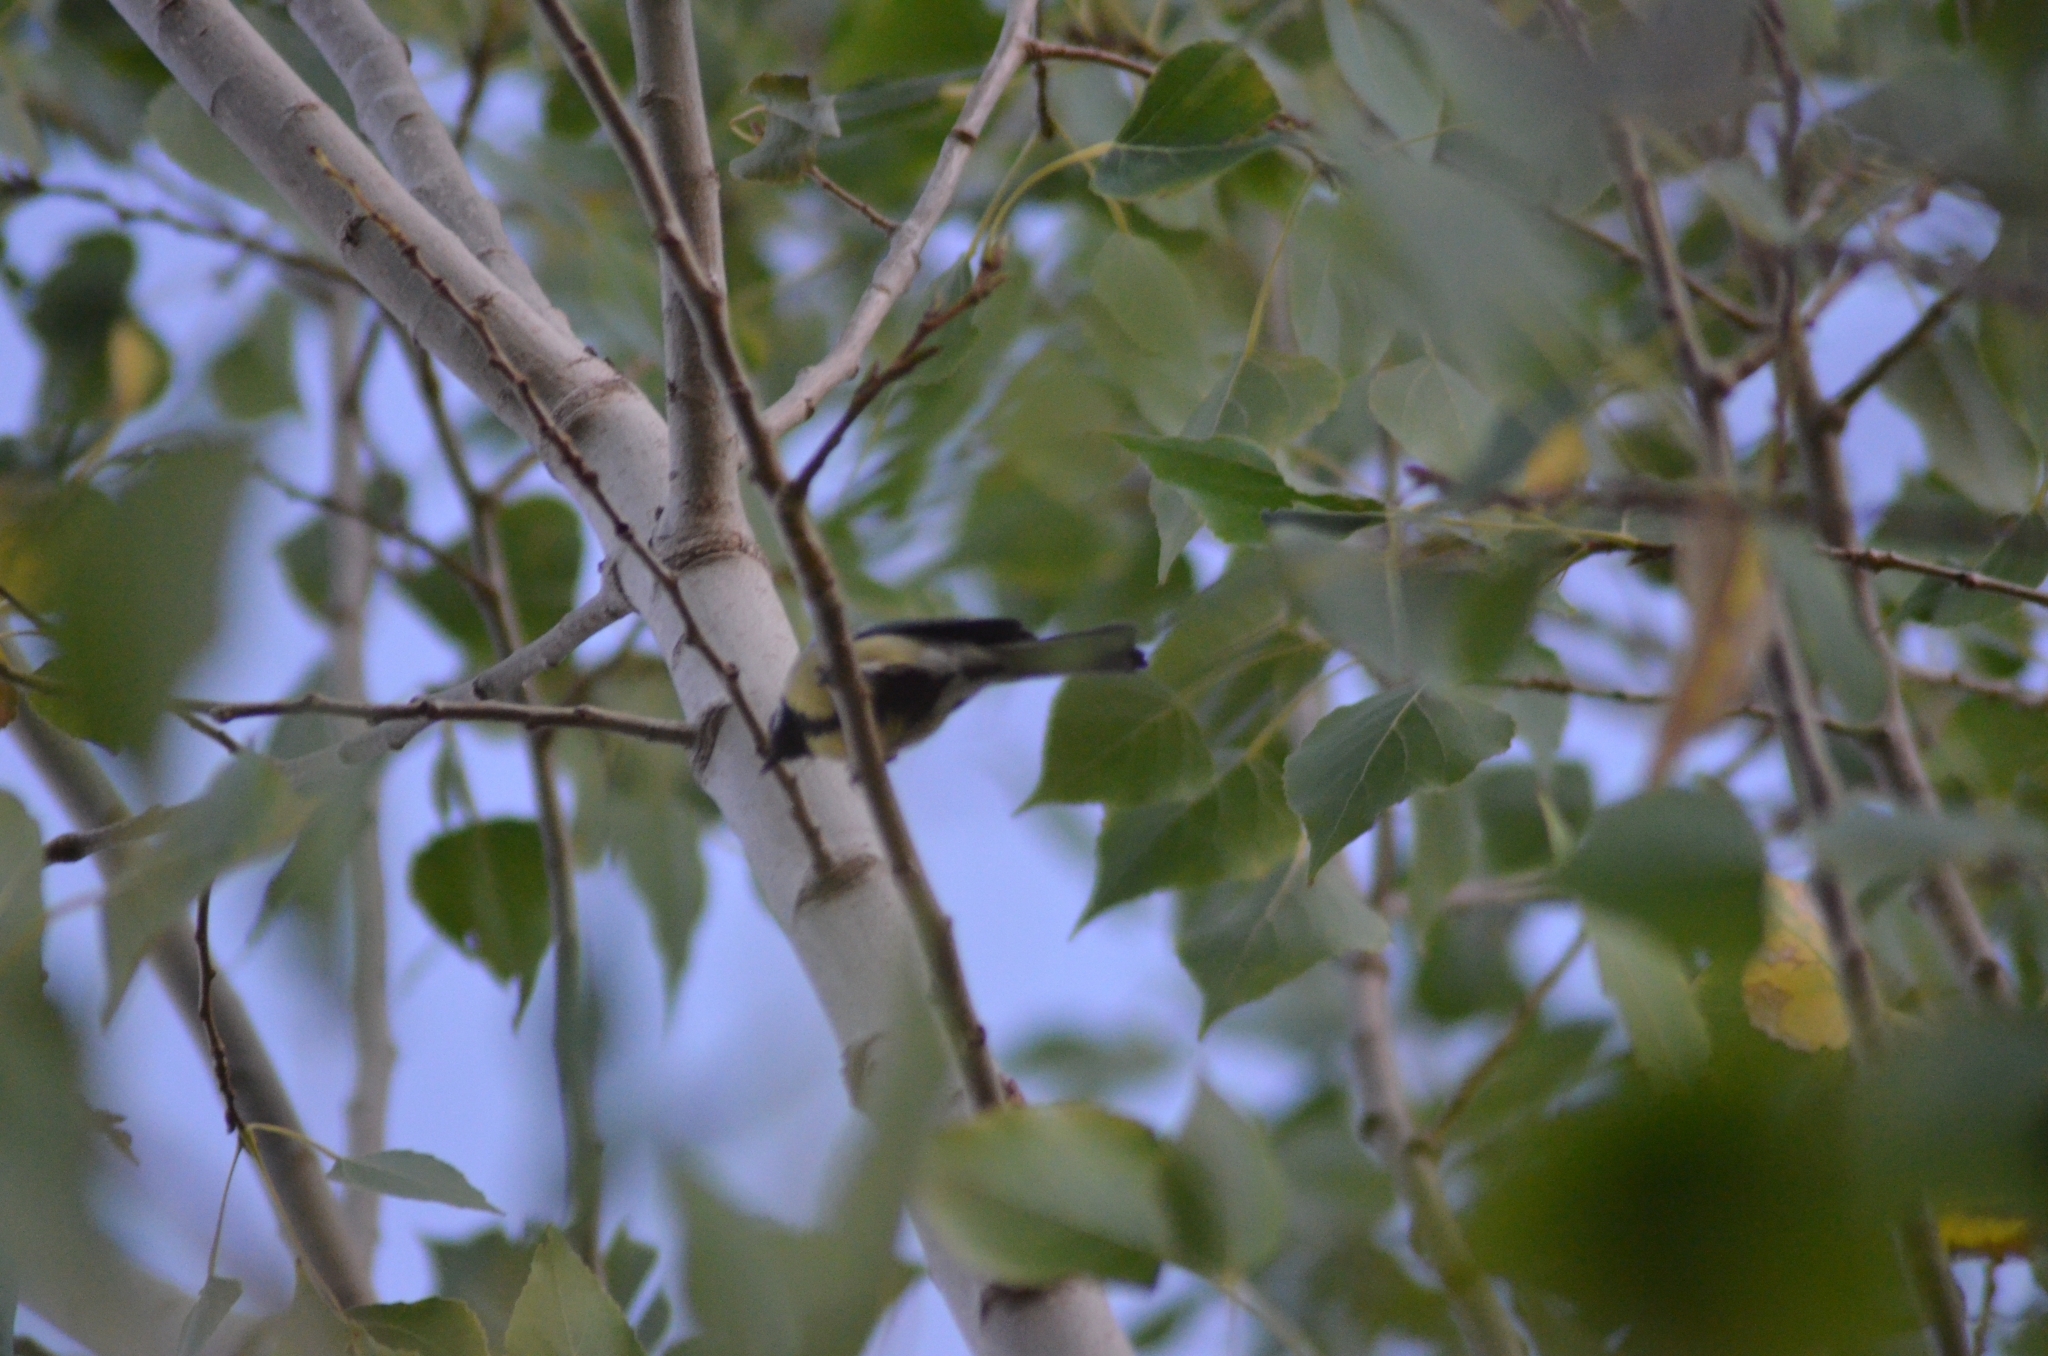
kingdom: Animalia
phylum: Chordata
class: Aves
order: Passeriformes
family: Paridae
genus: Parus
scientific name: Parus major
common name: Great tit
